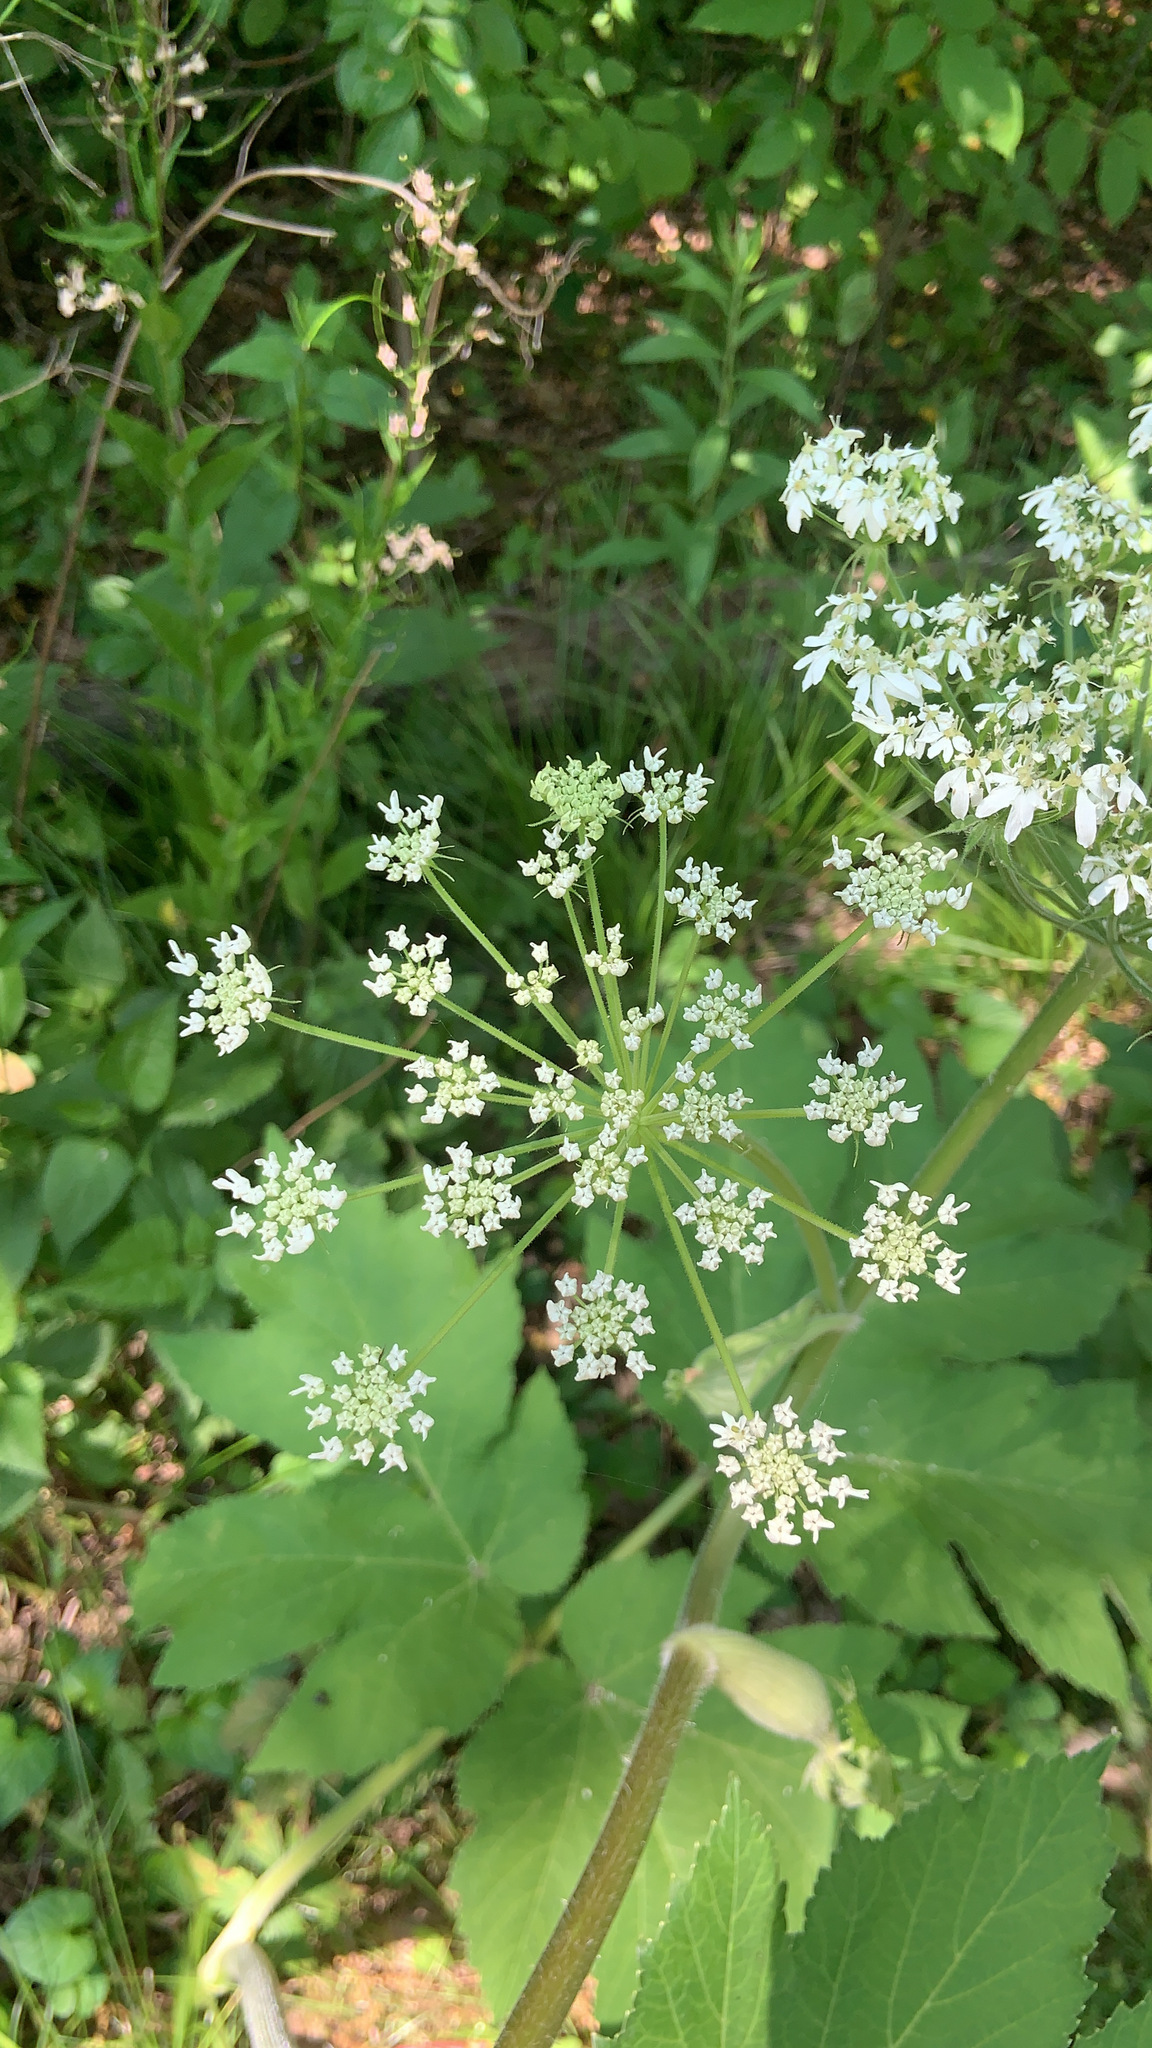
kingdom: Plantae
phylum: Tracheophyta
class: Magnoliopsida
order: Apiales
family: Apiaceae
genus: Heracleum
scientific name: Heracleum maximum
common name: American cow parsnip
